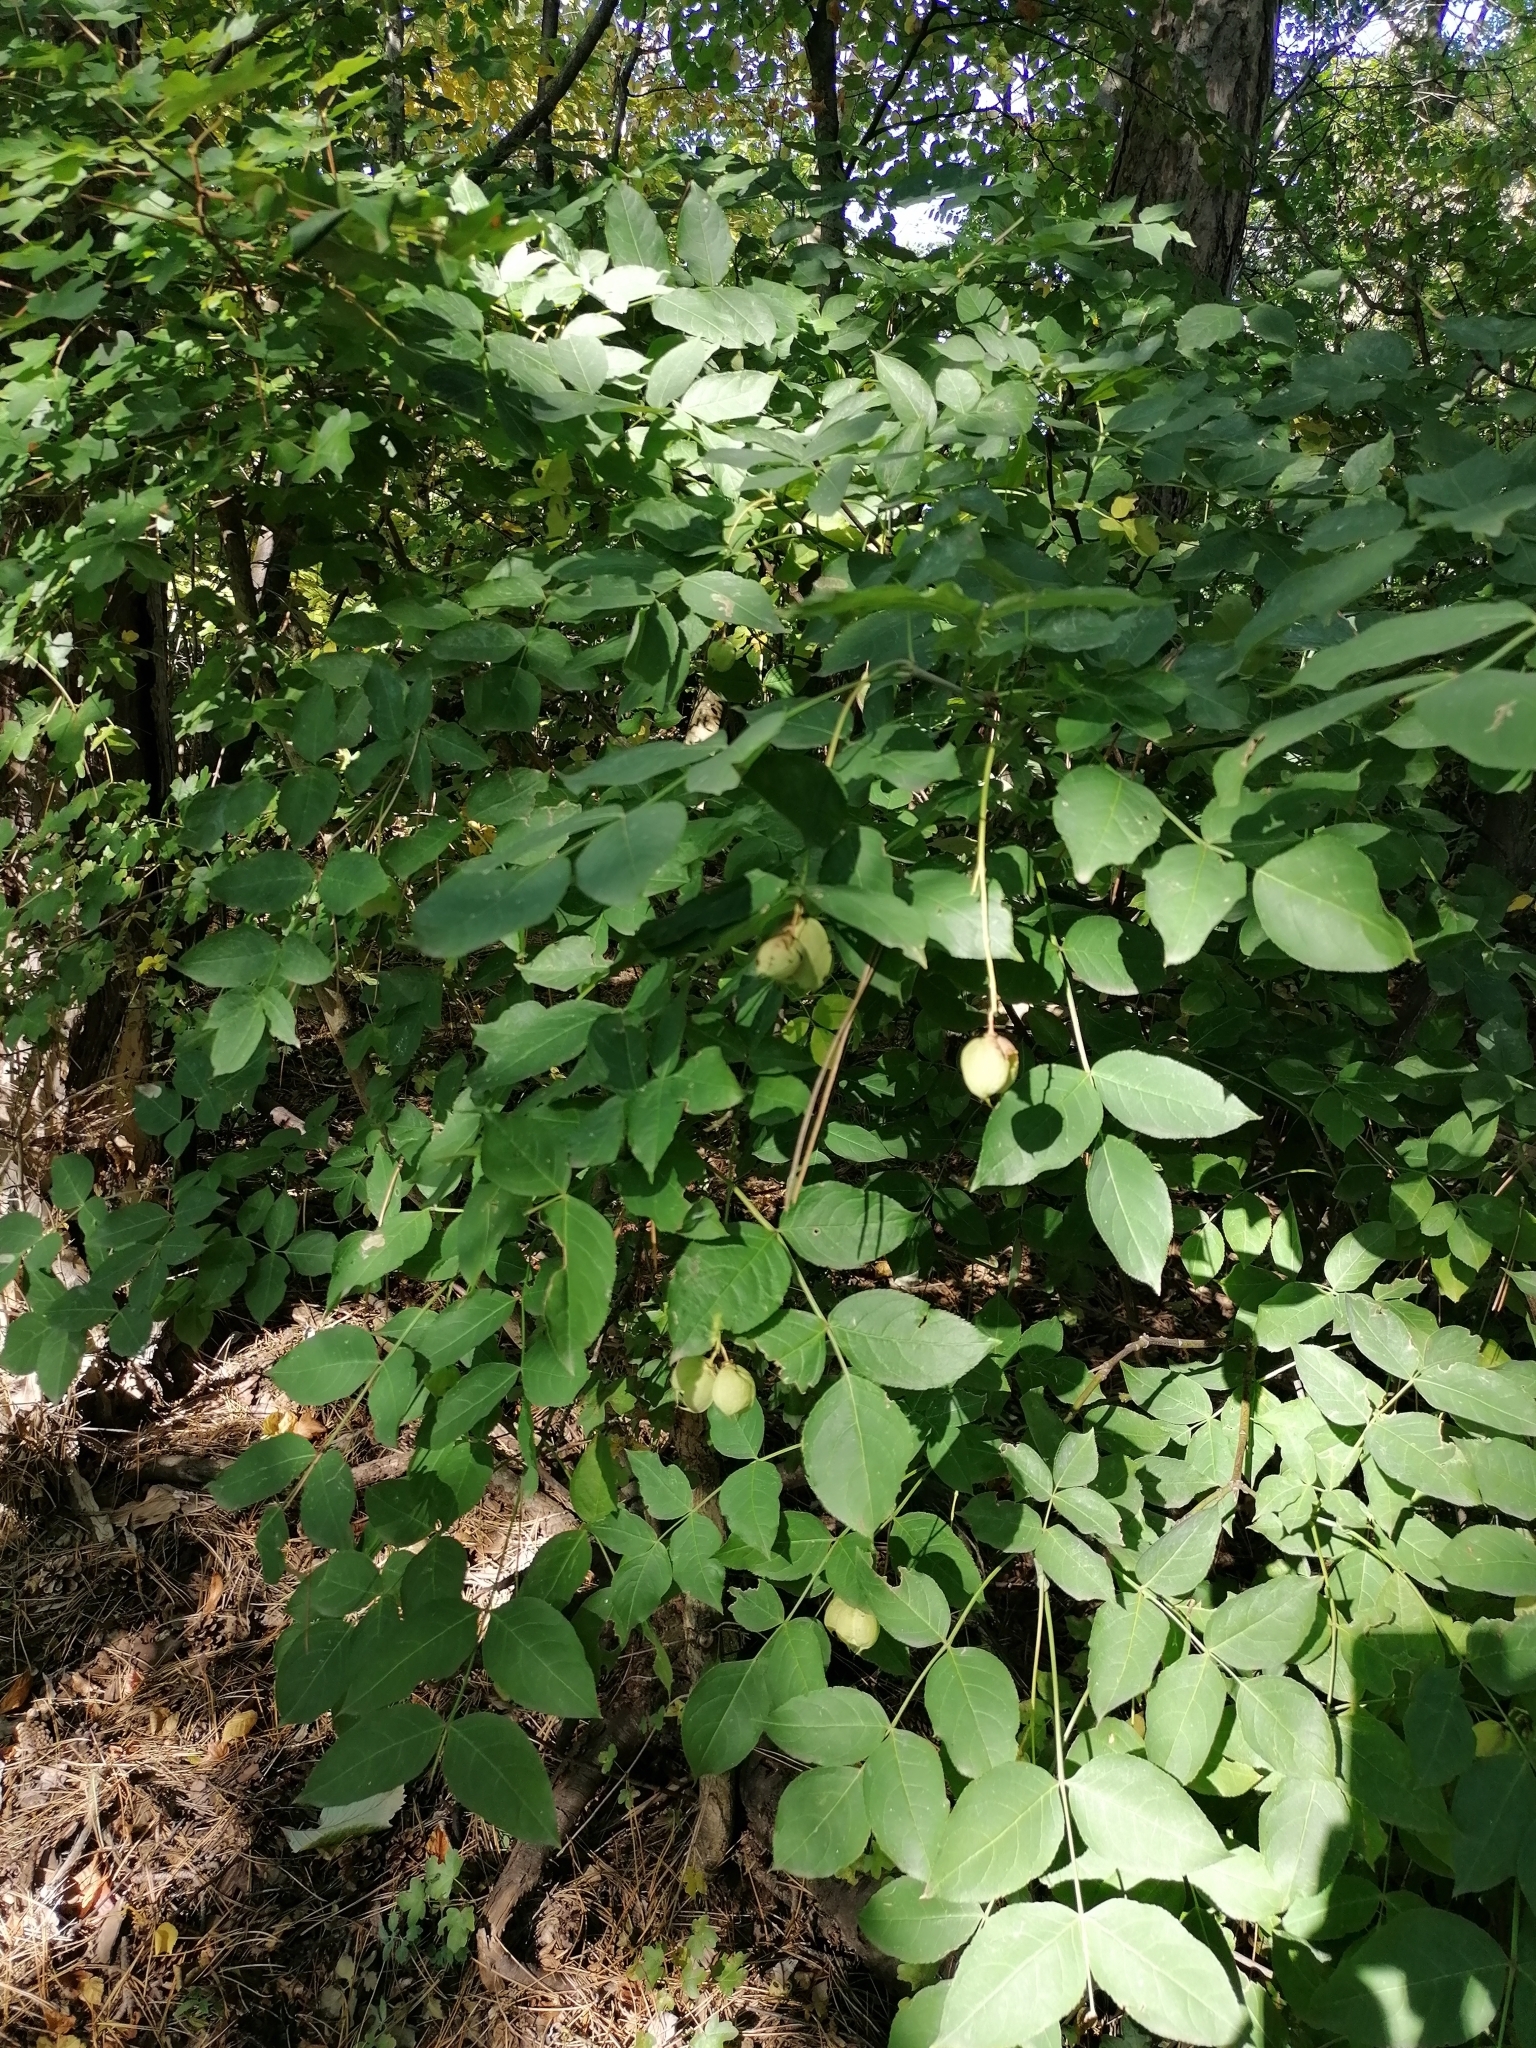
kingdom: Plantae
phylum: Tracheophyta
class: Magnoliopsida
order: Crossosomatales
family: Staphyleaceae
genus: Staphylea
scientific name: Staphylea pinnata
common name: Bladdernut
